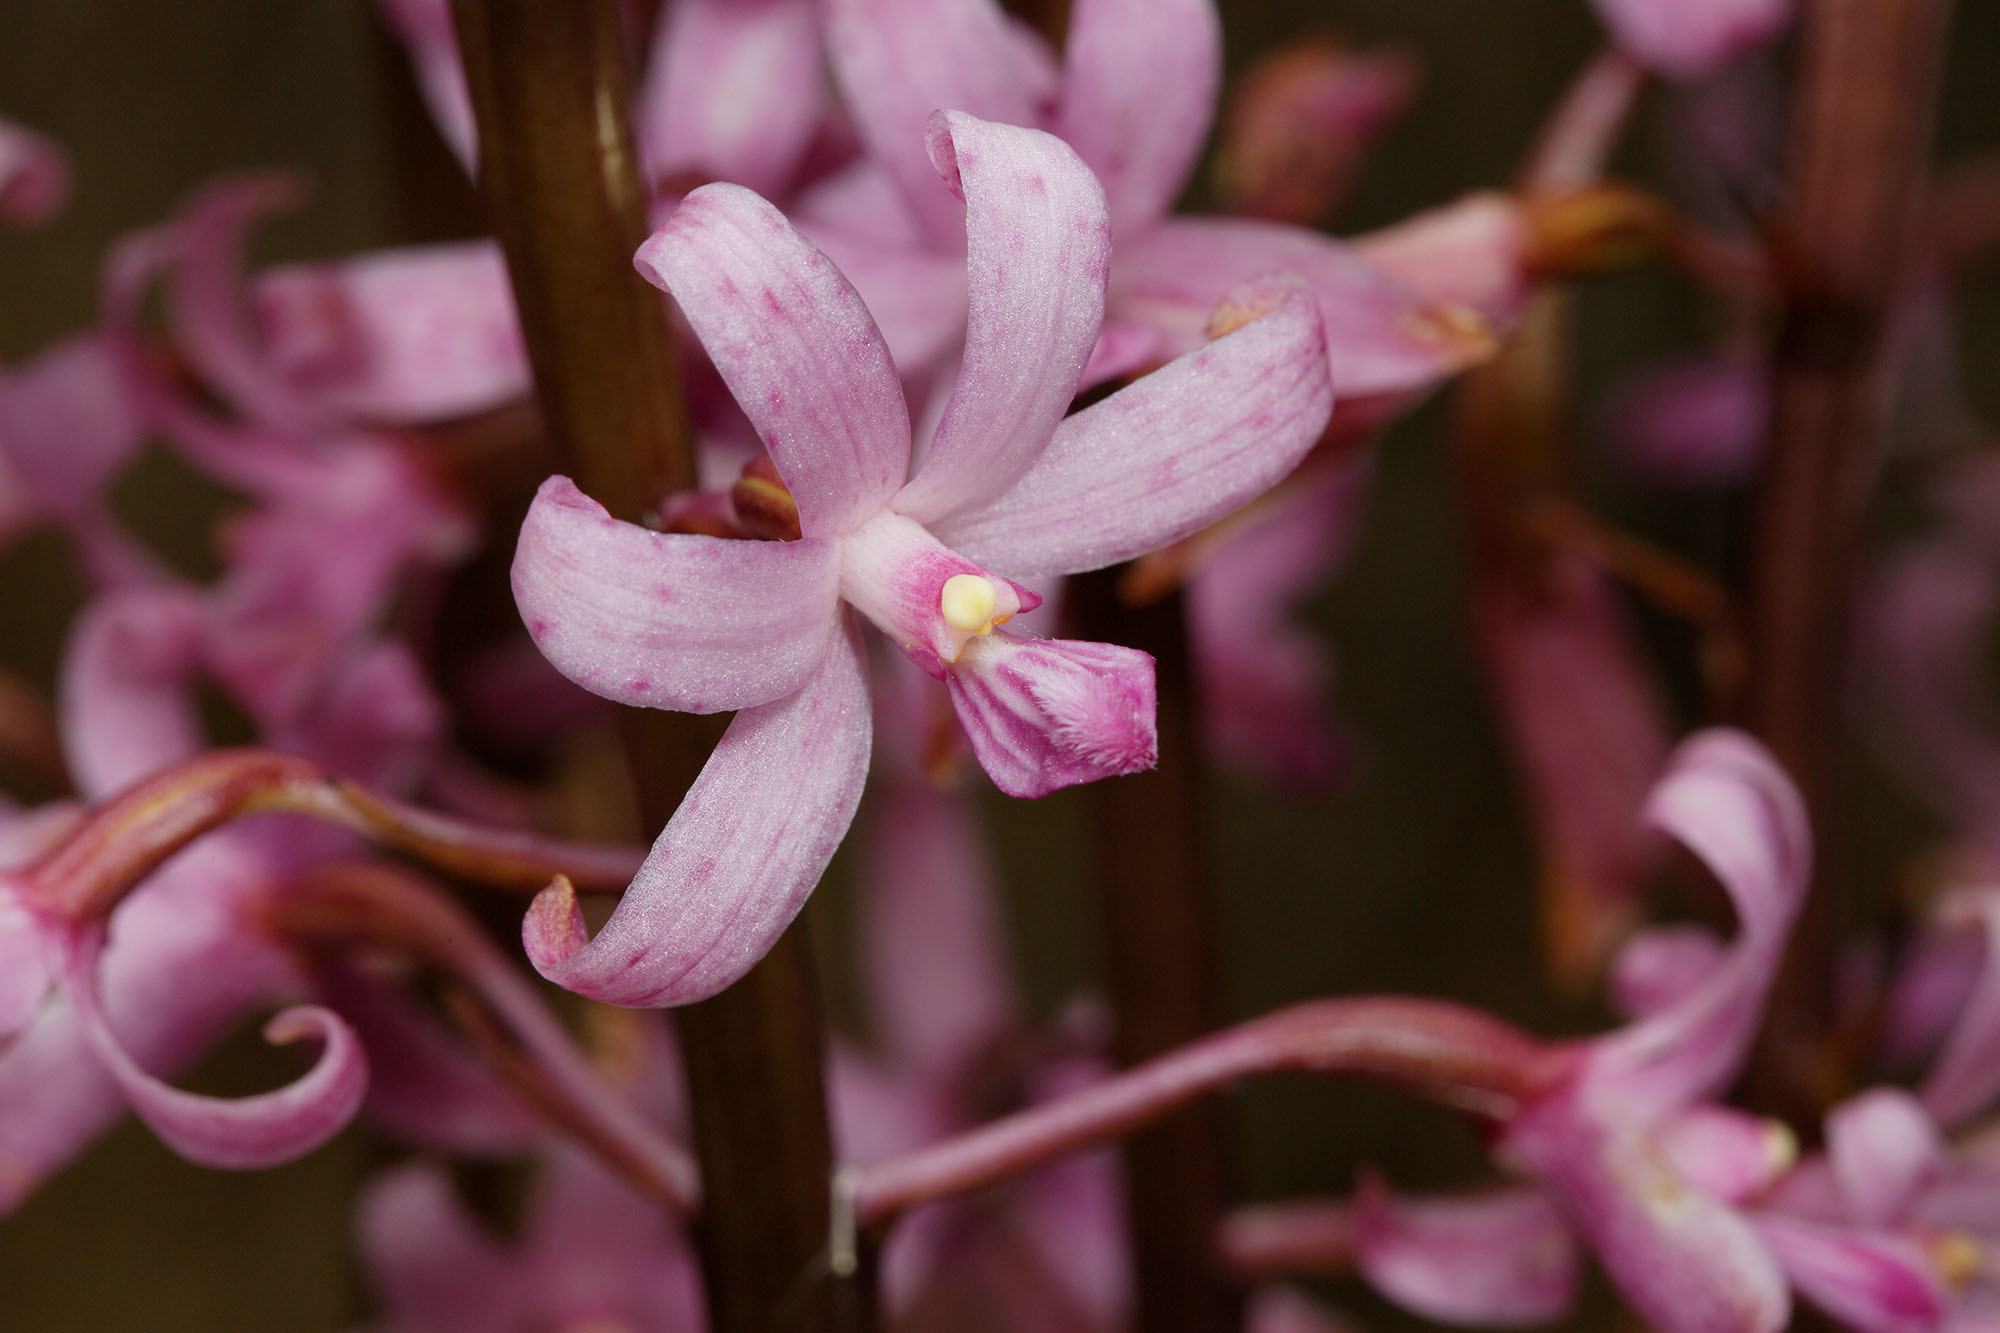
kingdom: Plantae
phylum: Tracheophyta
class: Liliopsida
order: Asparagales
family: Orchidaceae
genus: Dipodium
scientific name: Dipodium roseum
